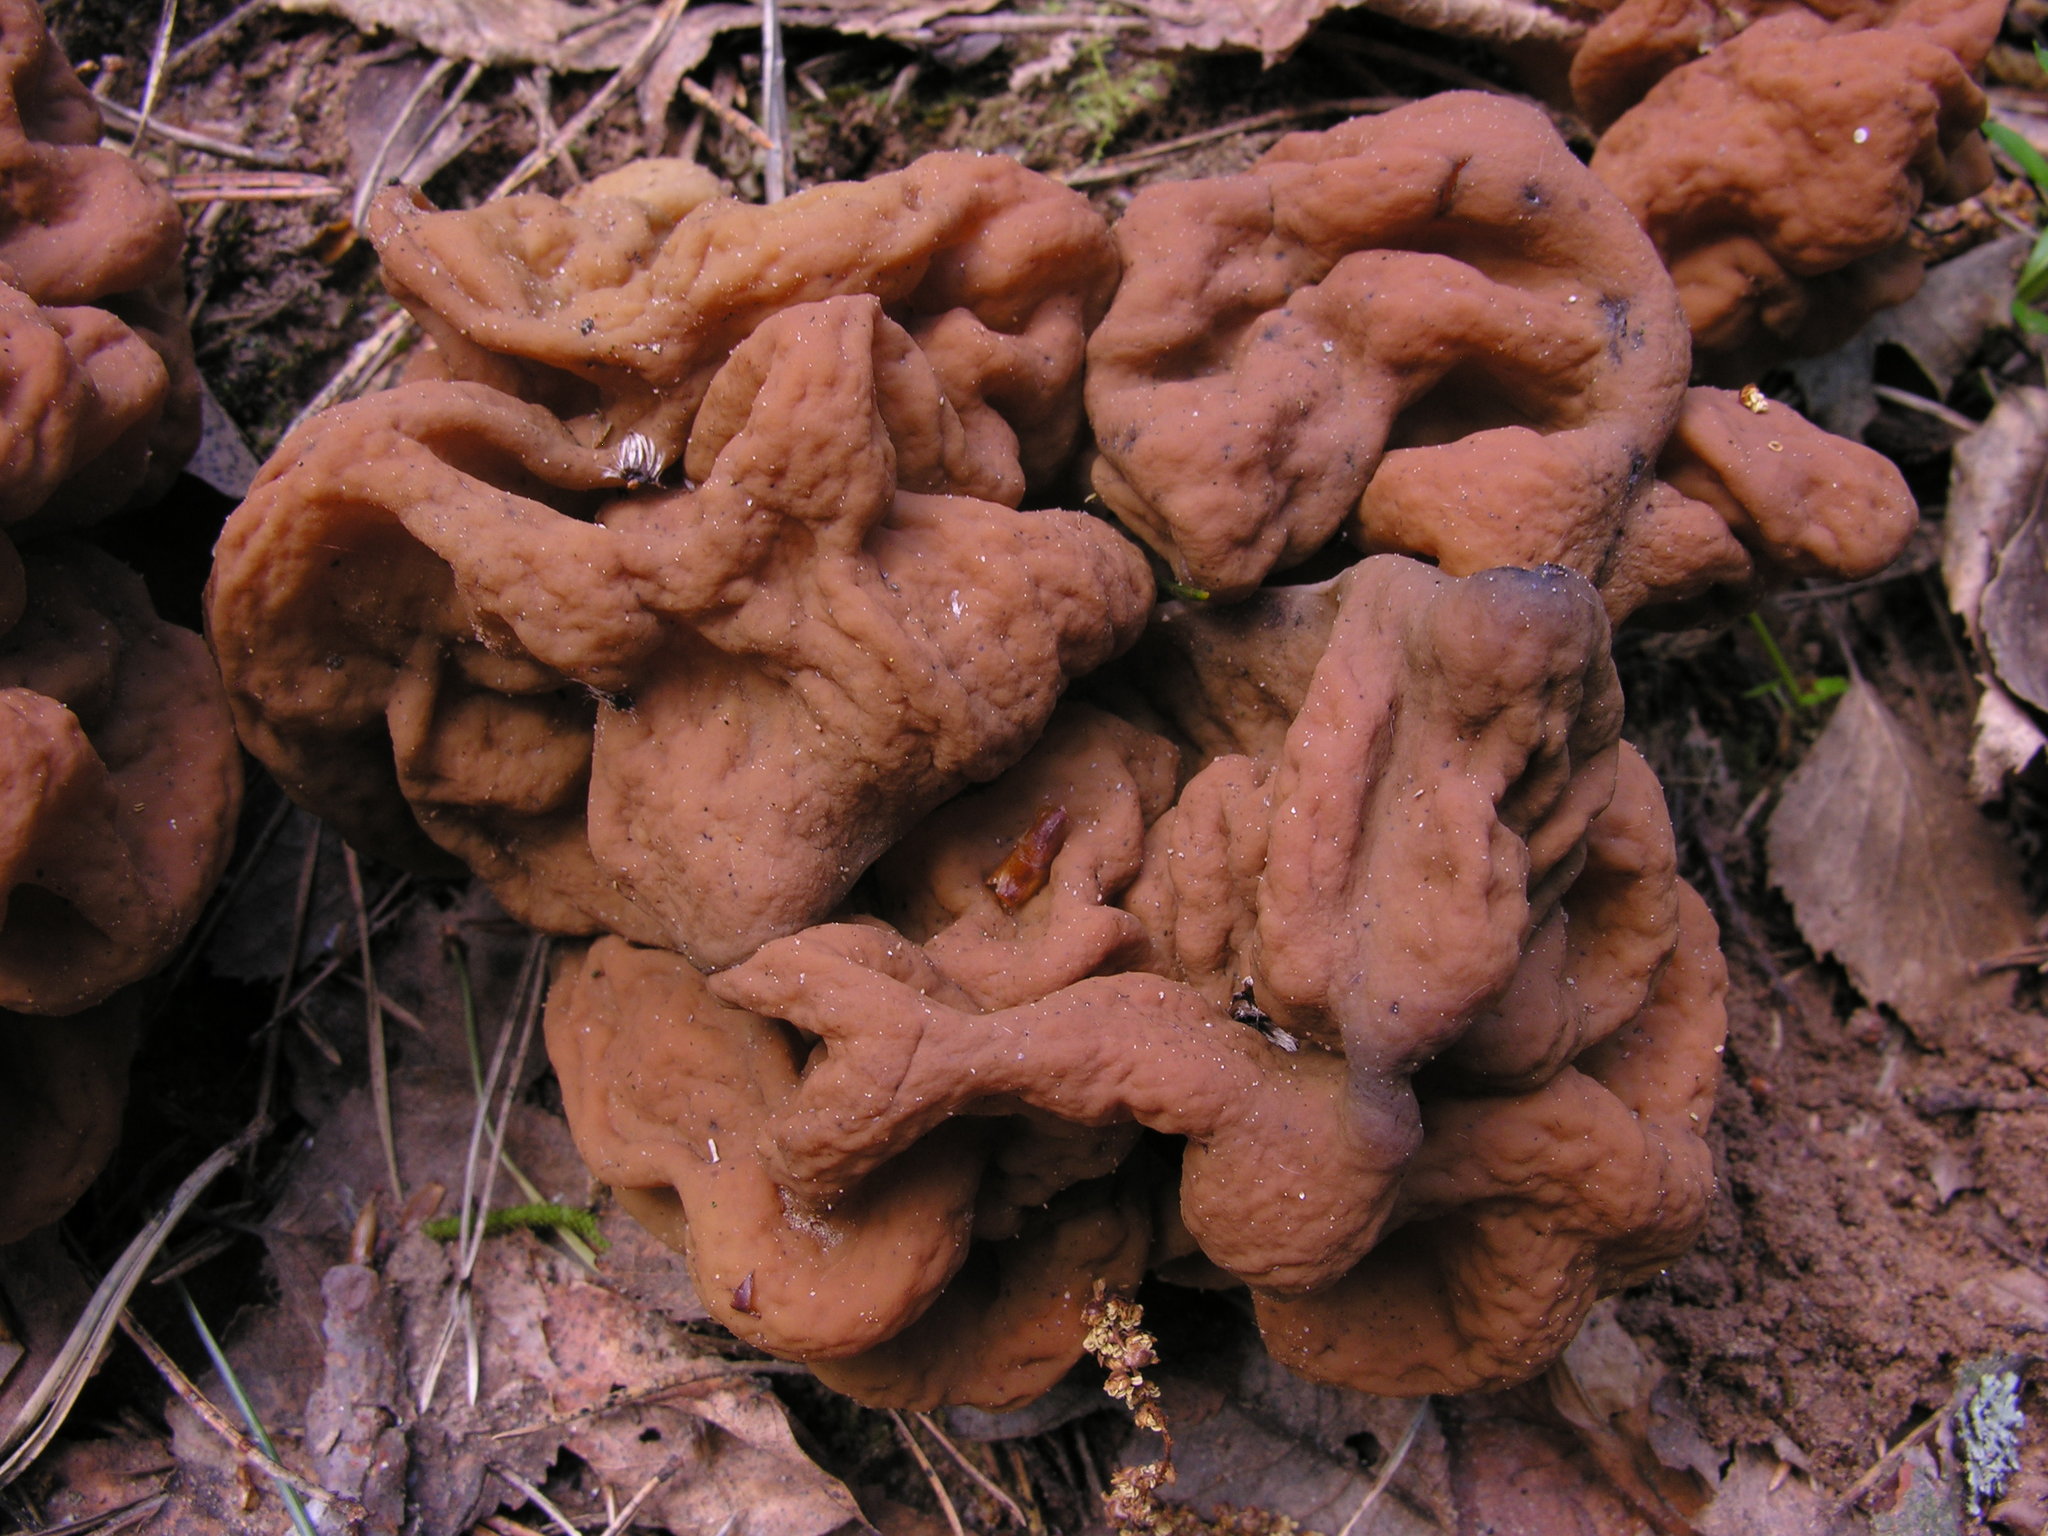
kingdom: Fungi
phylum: Ascomycota
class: Pezizomycetes
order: Pezizales
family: Discinaceae
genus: Gyromitra
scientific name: Gyromitra gigas
